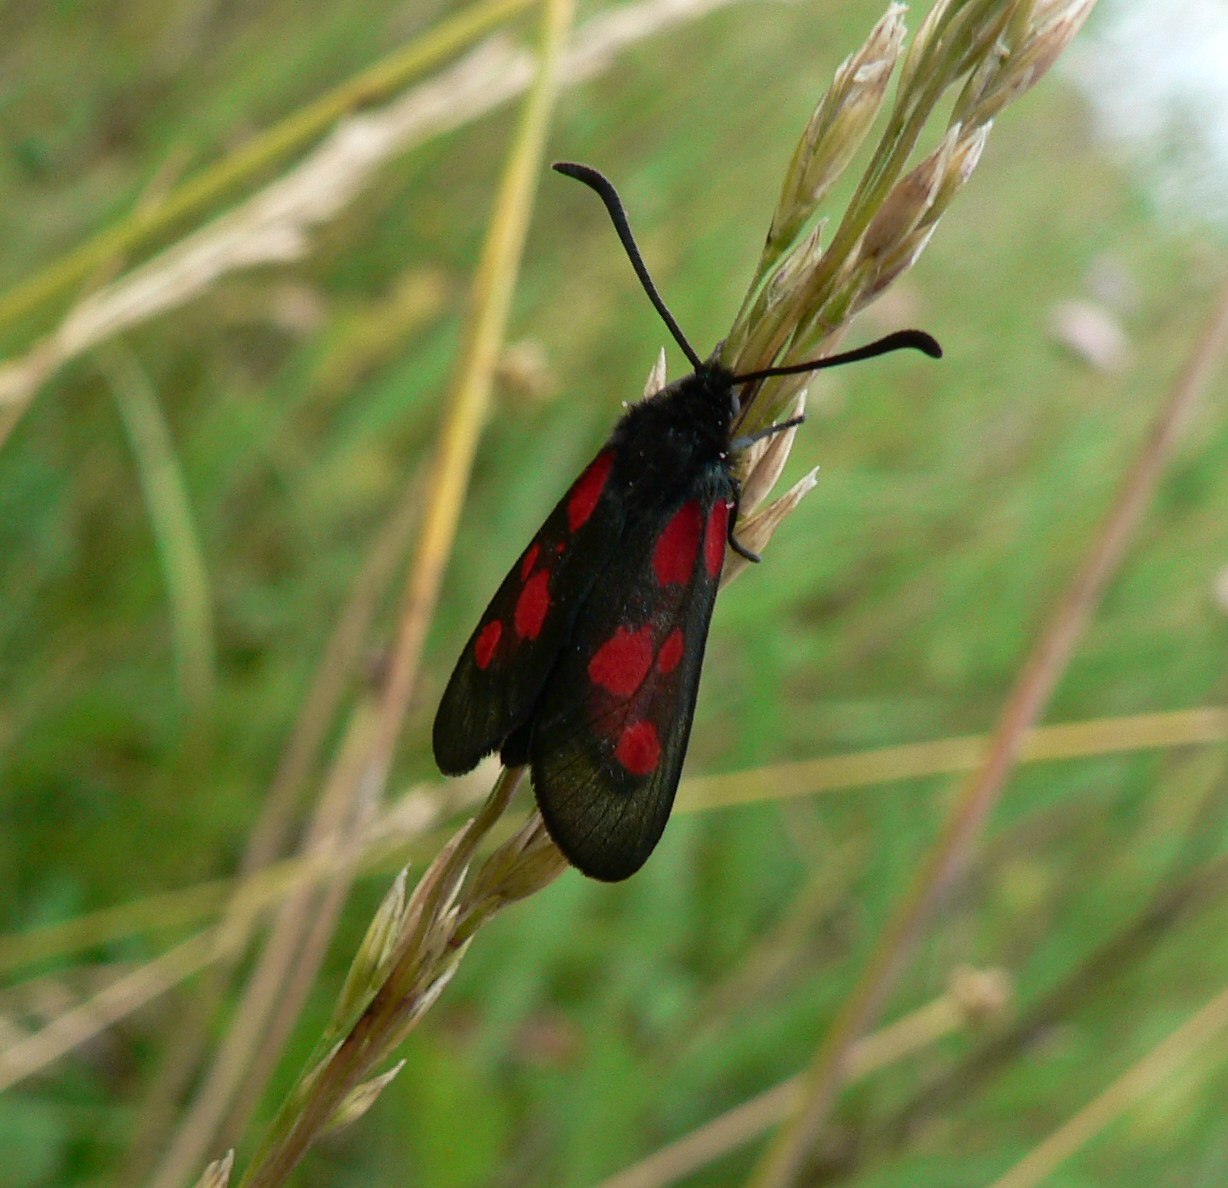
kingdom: Animalia
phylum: Arthropoda
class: Insecta
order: Lepidoptera
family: Zygaenidae
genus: Zygaena
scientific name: Zygaena viciae
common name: New forest burnet
